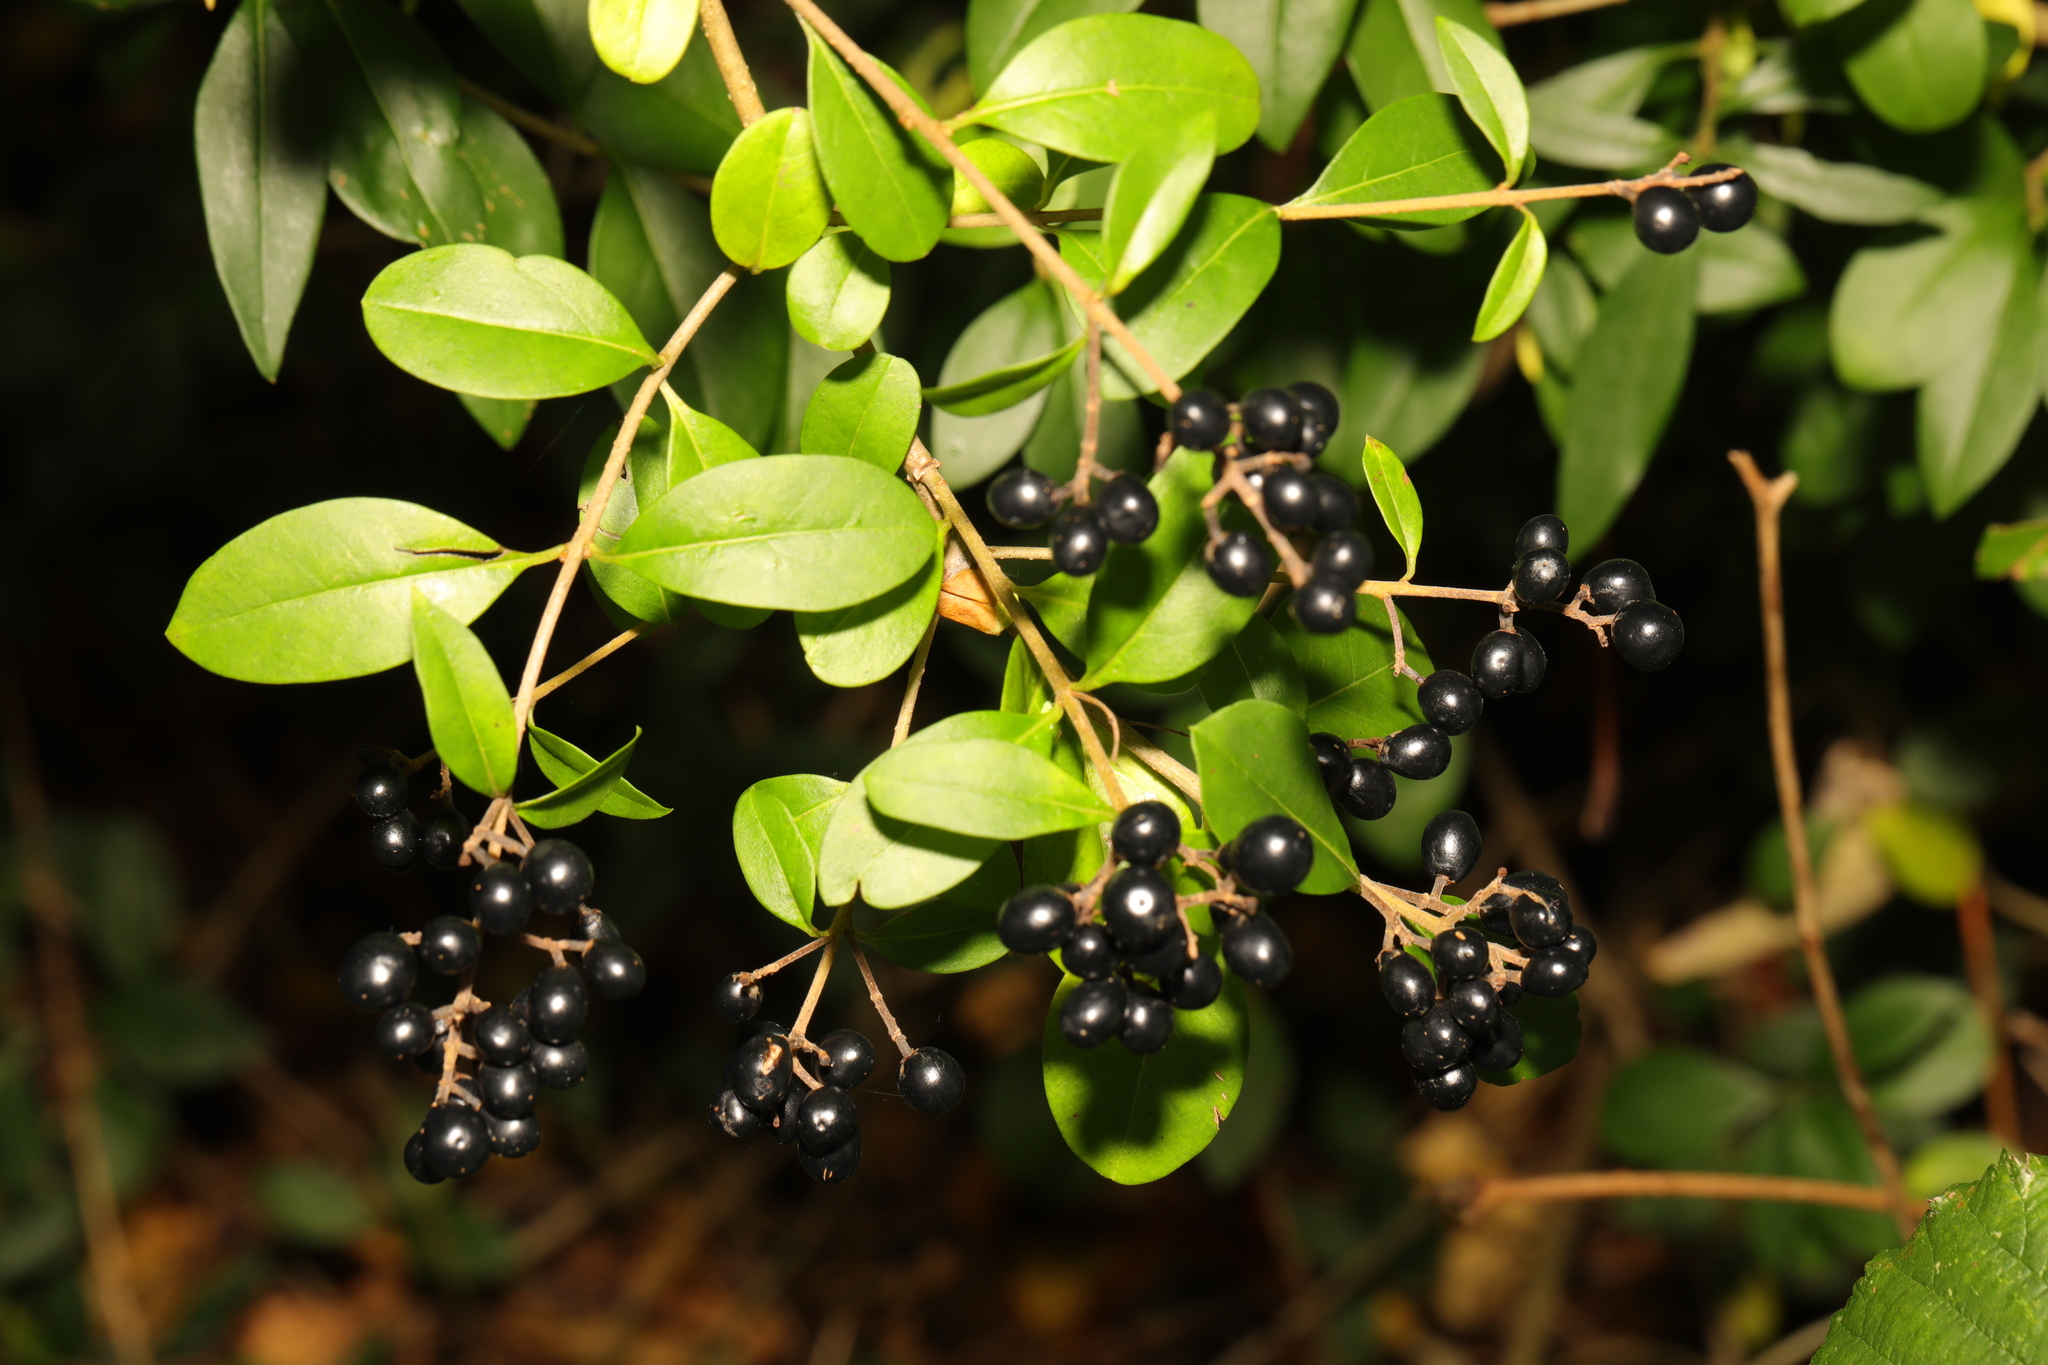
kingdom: Plantae
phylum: Tracheophyta
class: Magnoliopsida
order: Lamiales
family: Oleaceae
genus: Ligustrum
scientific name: Ligustrum vulgare
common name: Wild privet
